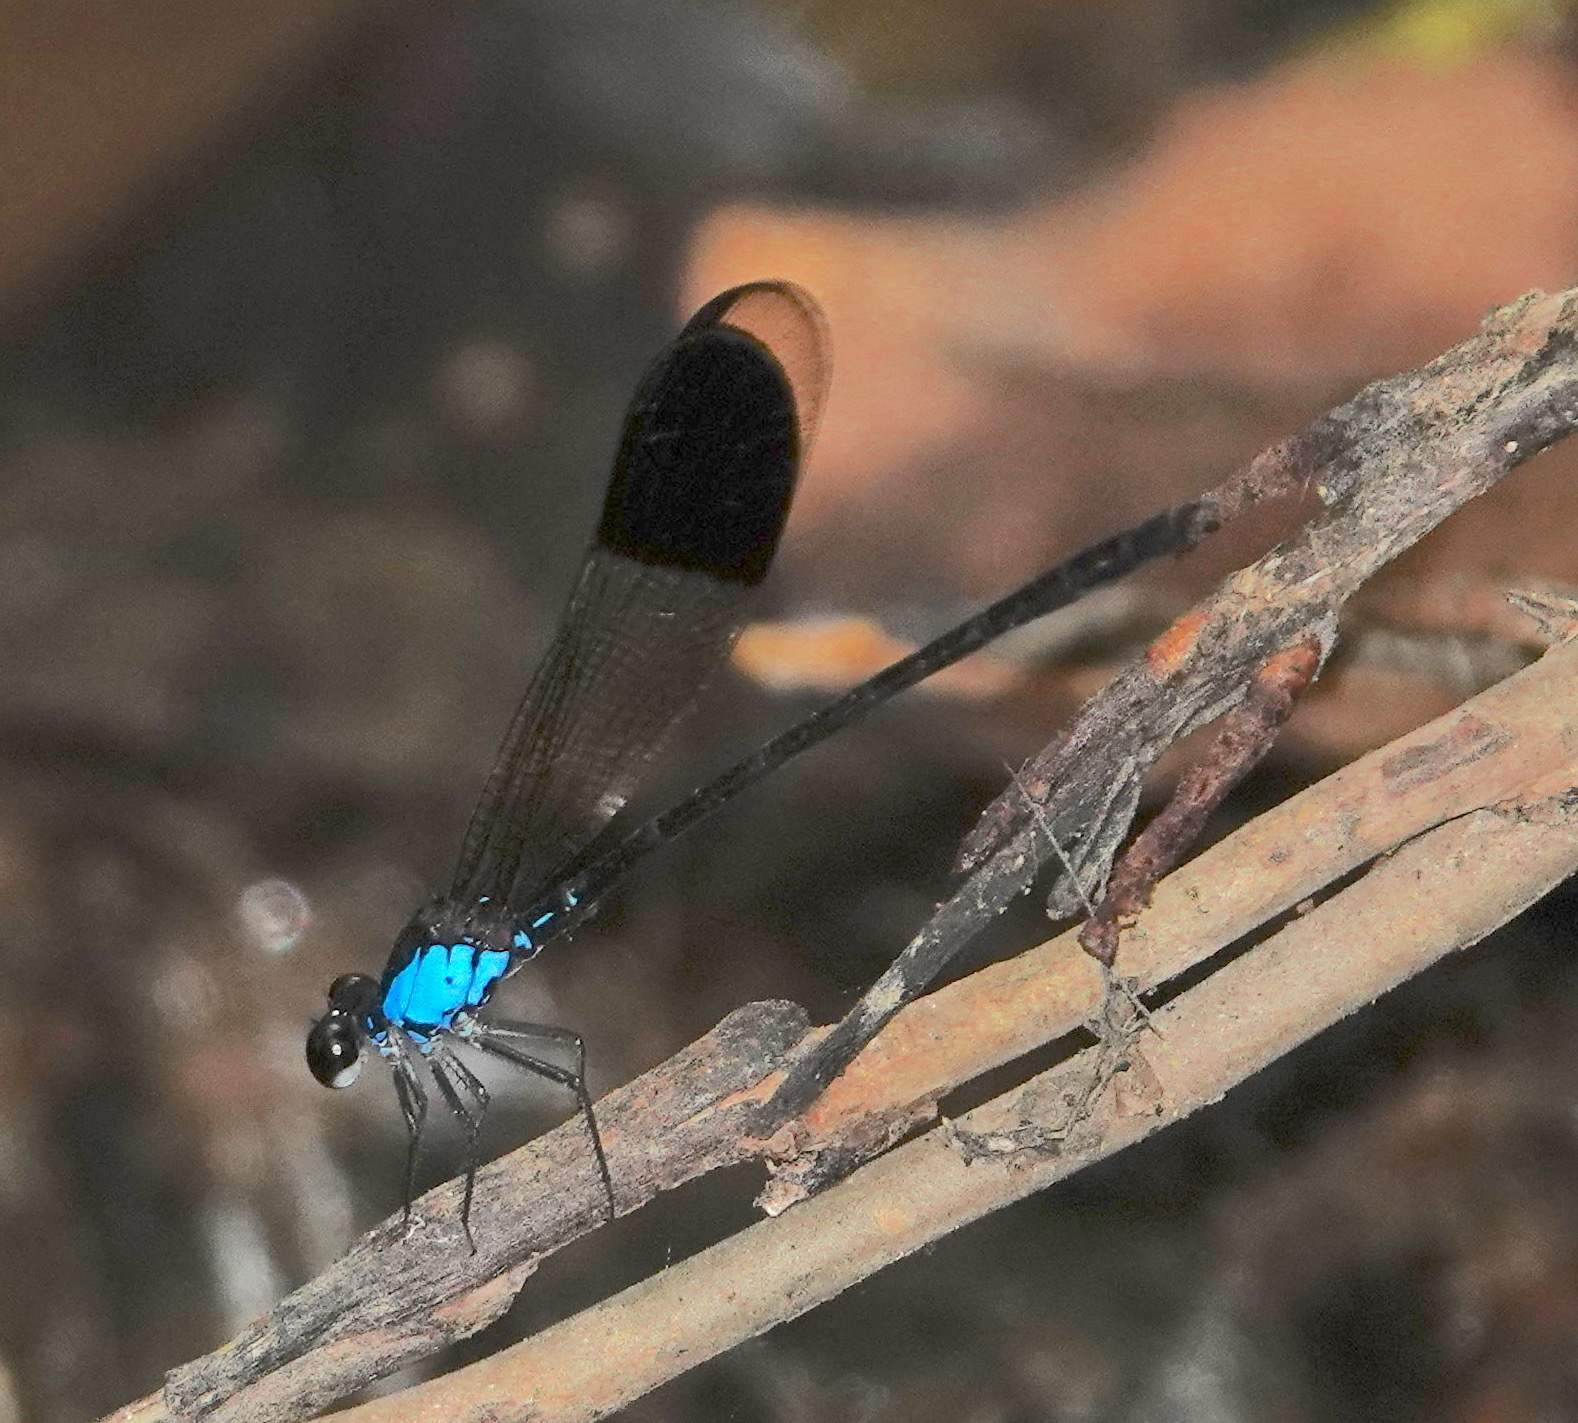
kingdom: Animalia
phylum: Arthropoda
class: Insecta
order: Odonata
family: Euphaeidae
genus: Euphaea
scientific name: Euphaea impar
